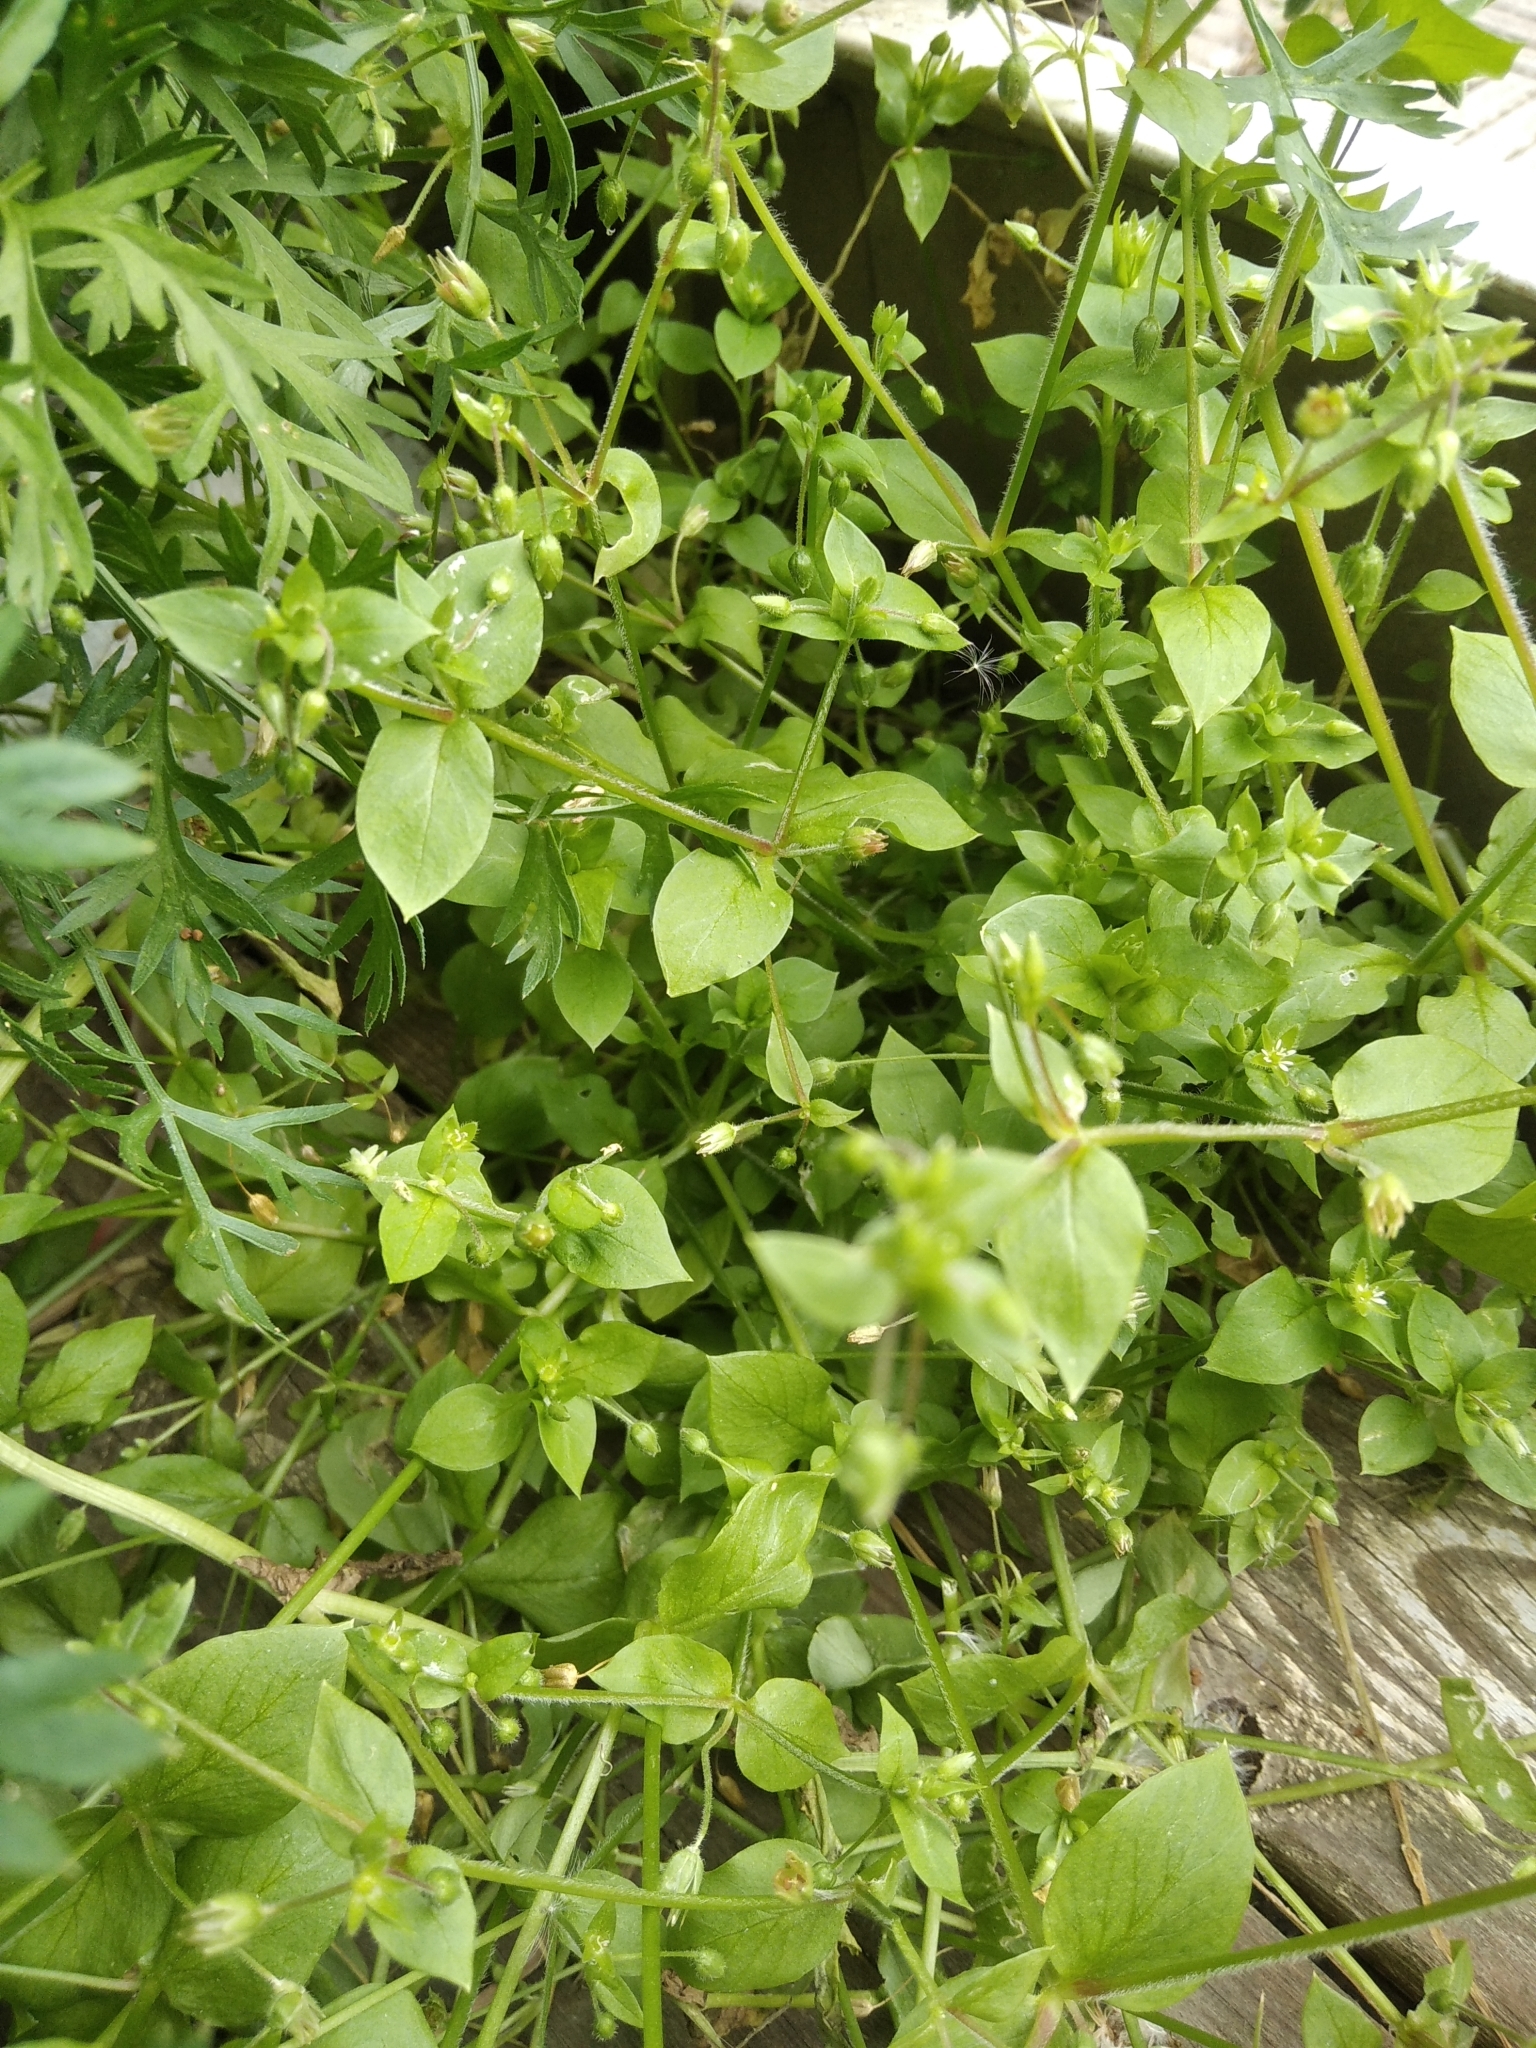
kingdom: Plantae
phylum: Tracheophyta
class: Magnoliopsida
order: Caryophyllales
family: Caryophyllaceae
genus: Stellaria
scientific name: Stellaria media
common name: Common chickweed
